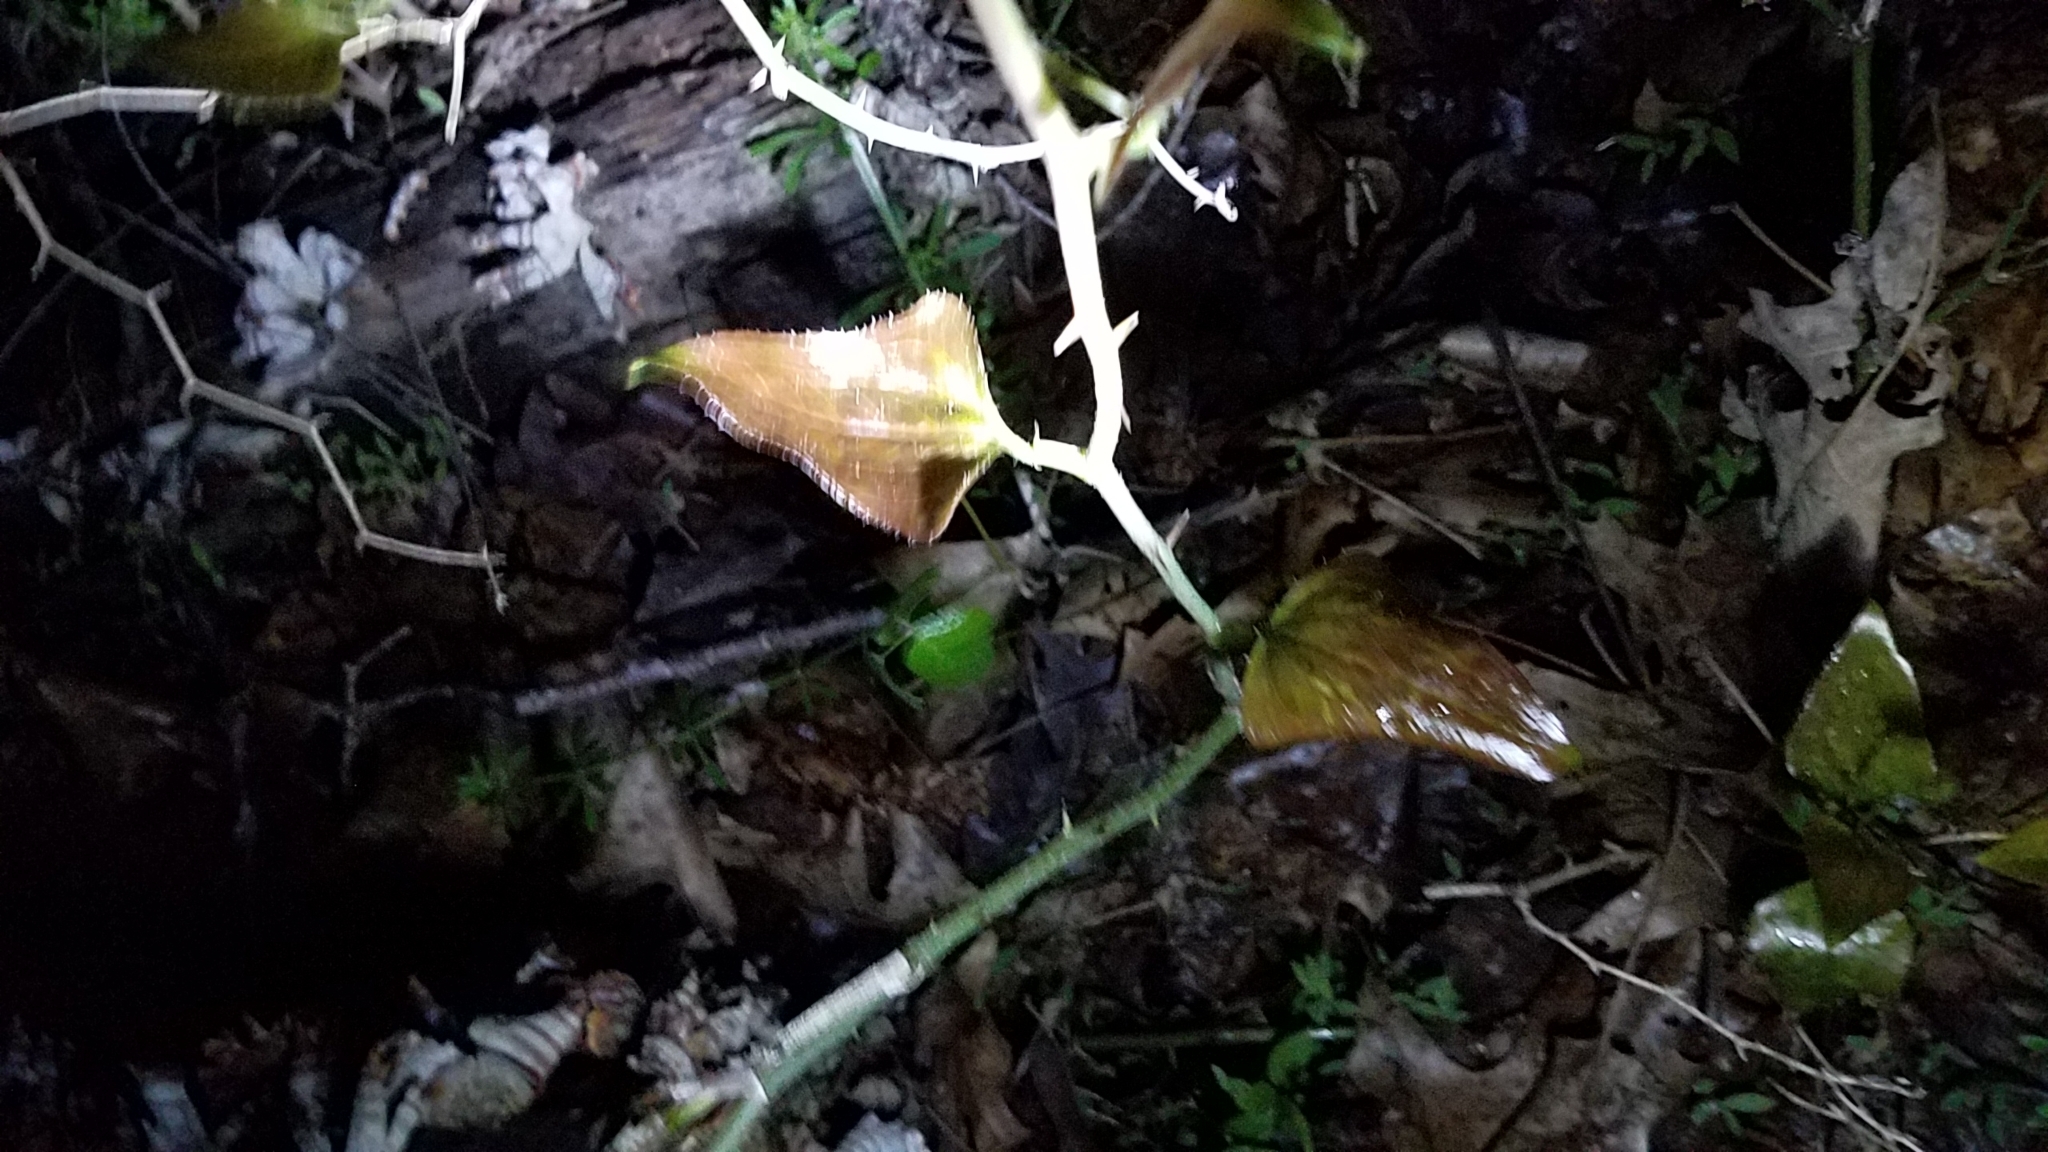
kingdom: Plantae
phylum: Tracheophyta
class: Liliopsida
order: Liliales
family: Smilacaceae
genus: Smilax
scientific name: Smilax bona-nox
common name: Catbrier
